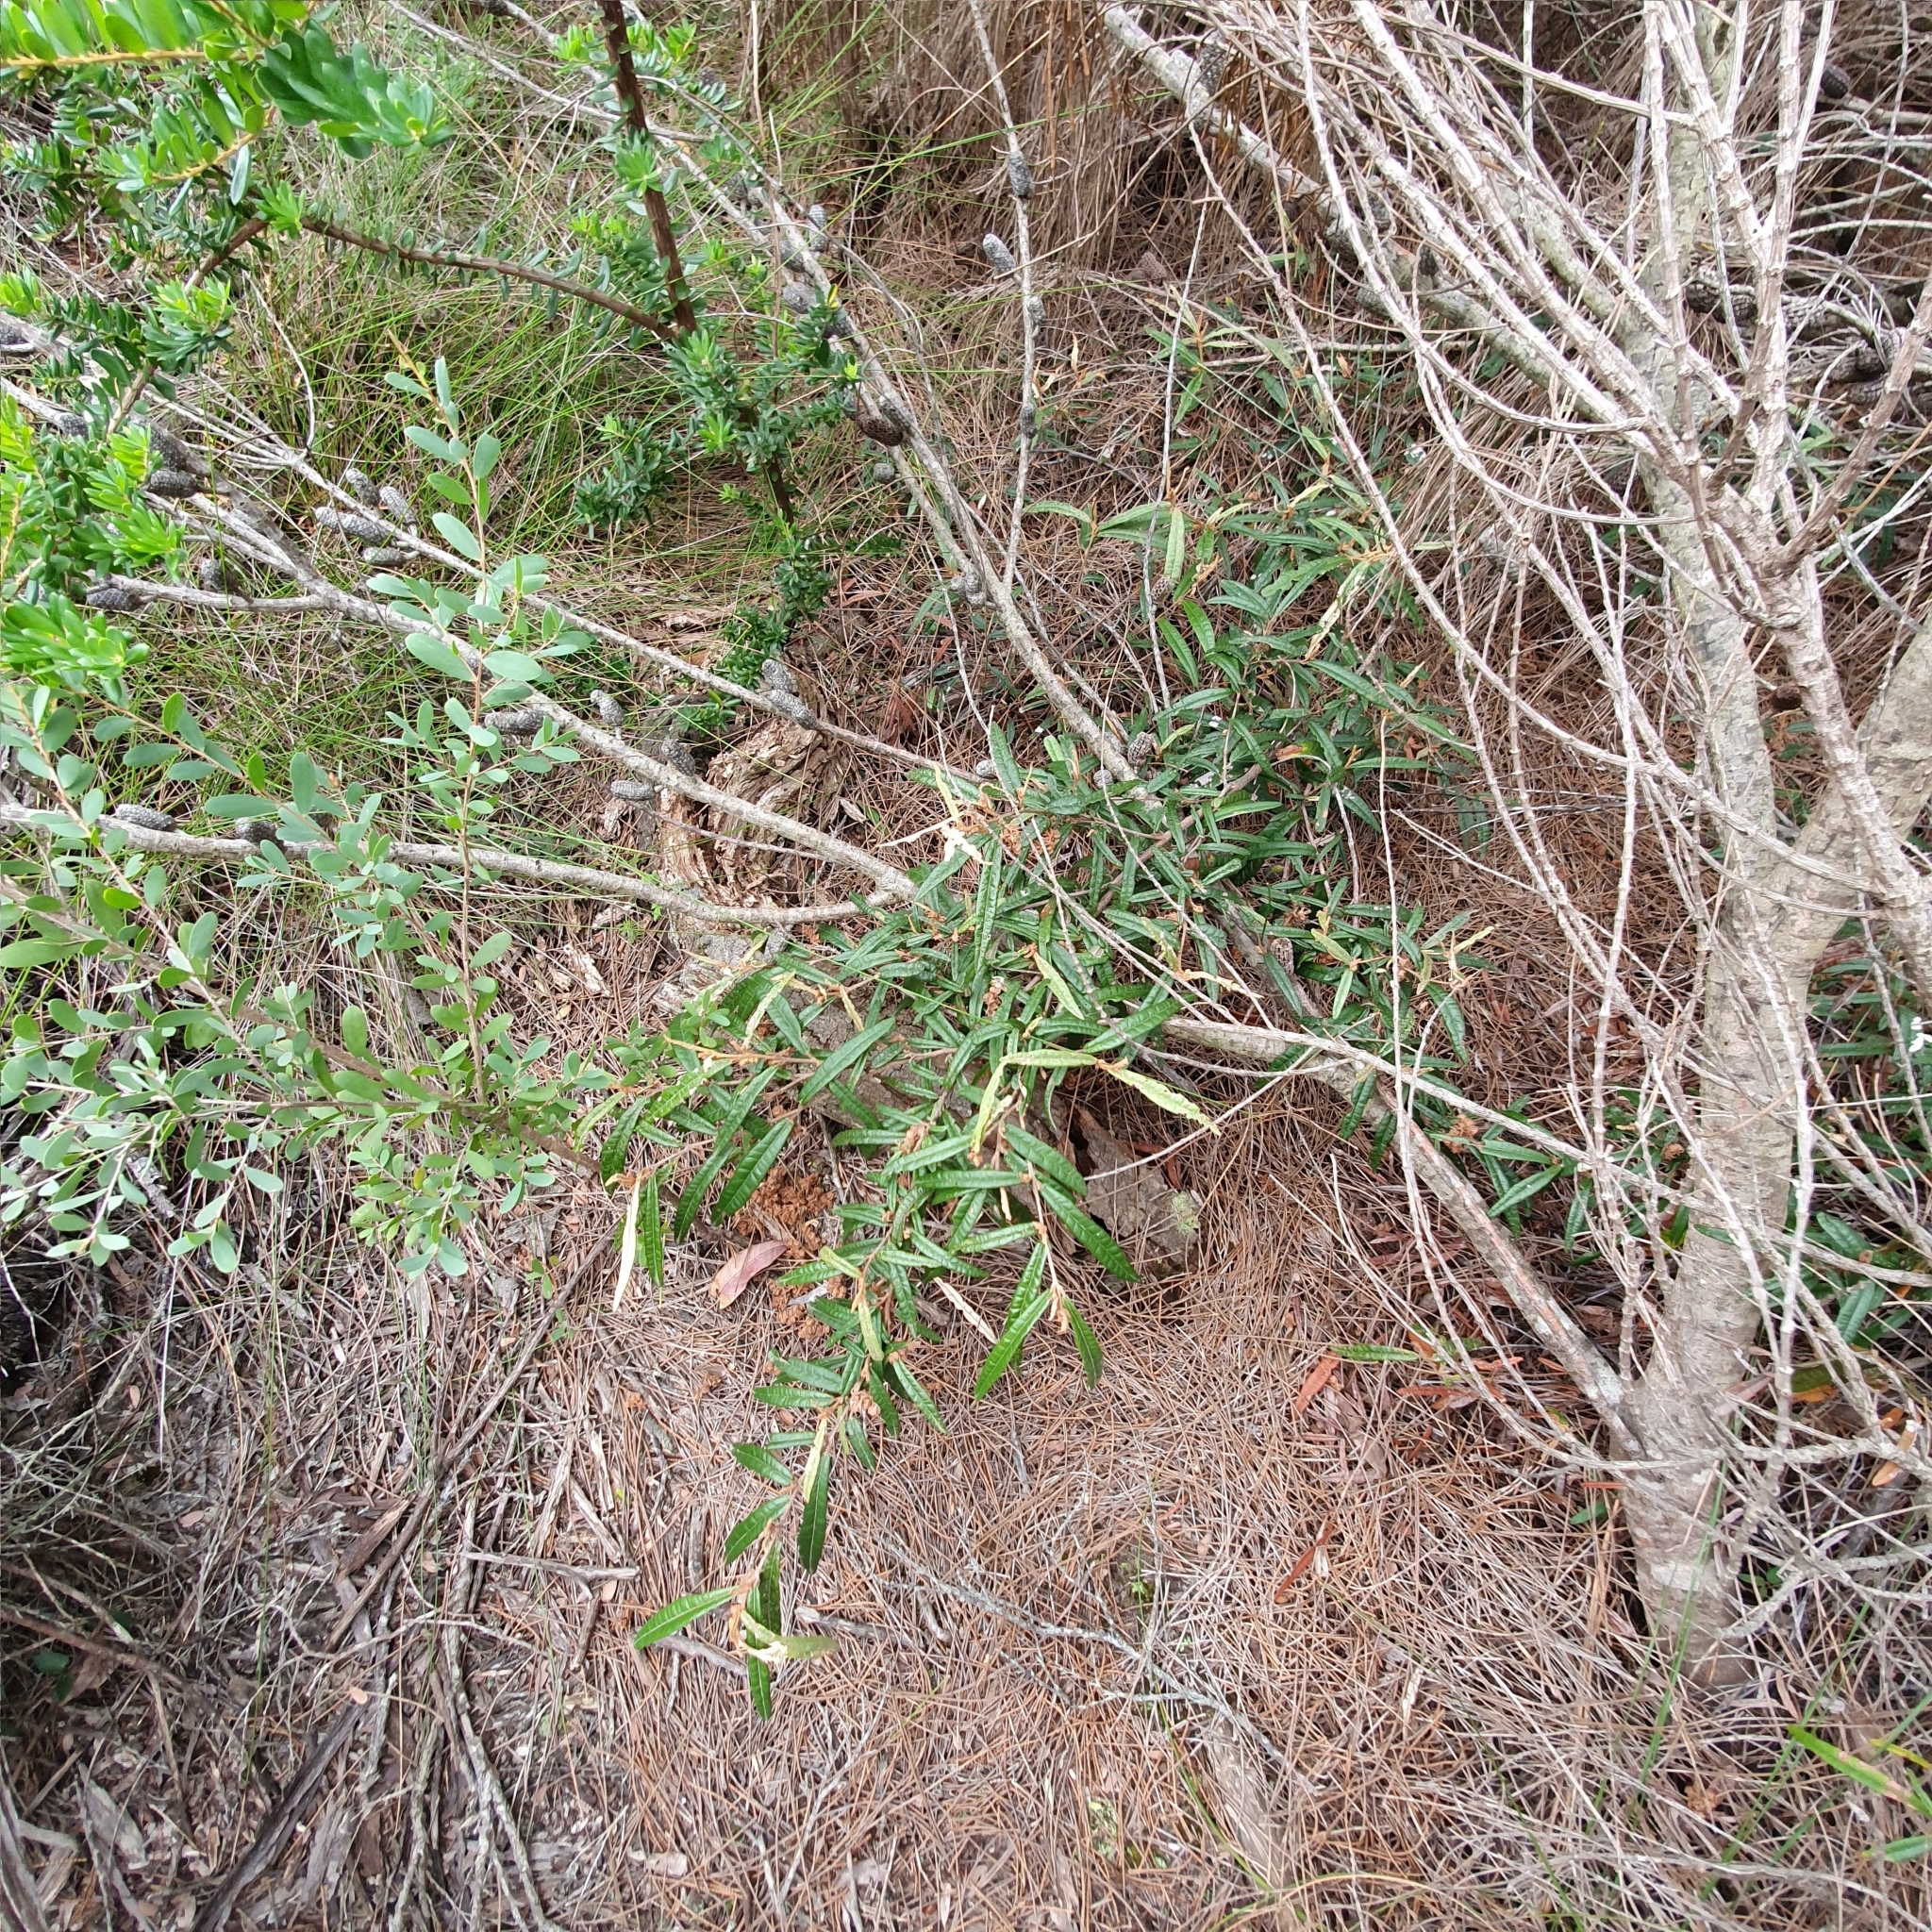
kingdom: Plantae
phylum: Tracheophyta
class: Magnoliopsida
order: Malvales
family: Malvaceae
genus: Lasiopetalum
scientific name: Lasiopetalum ferrugineum
